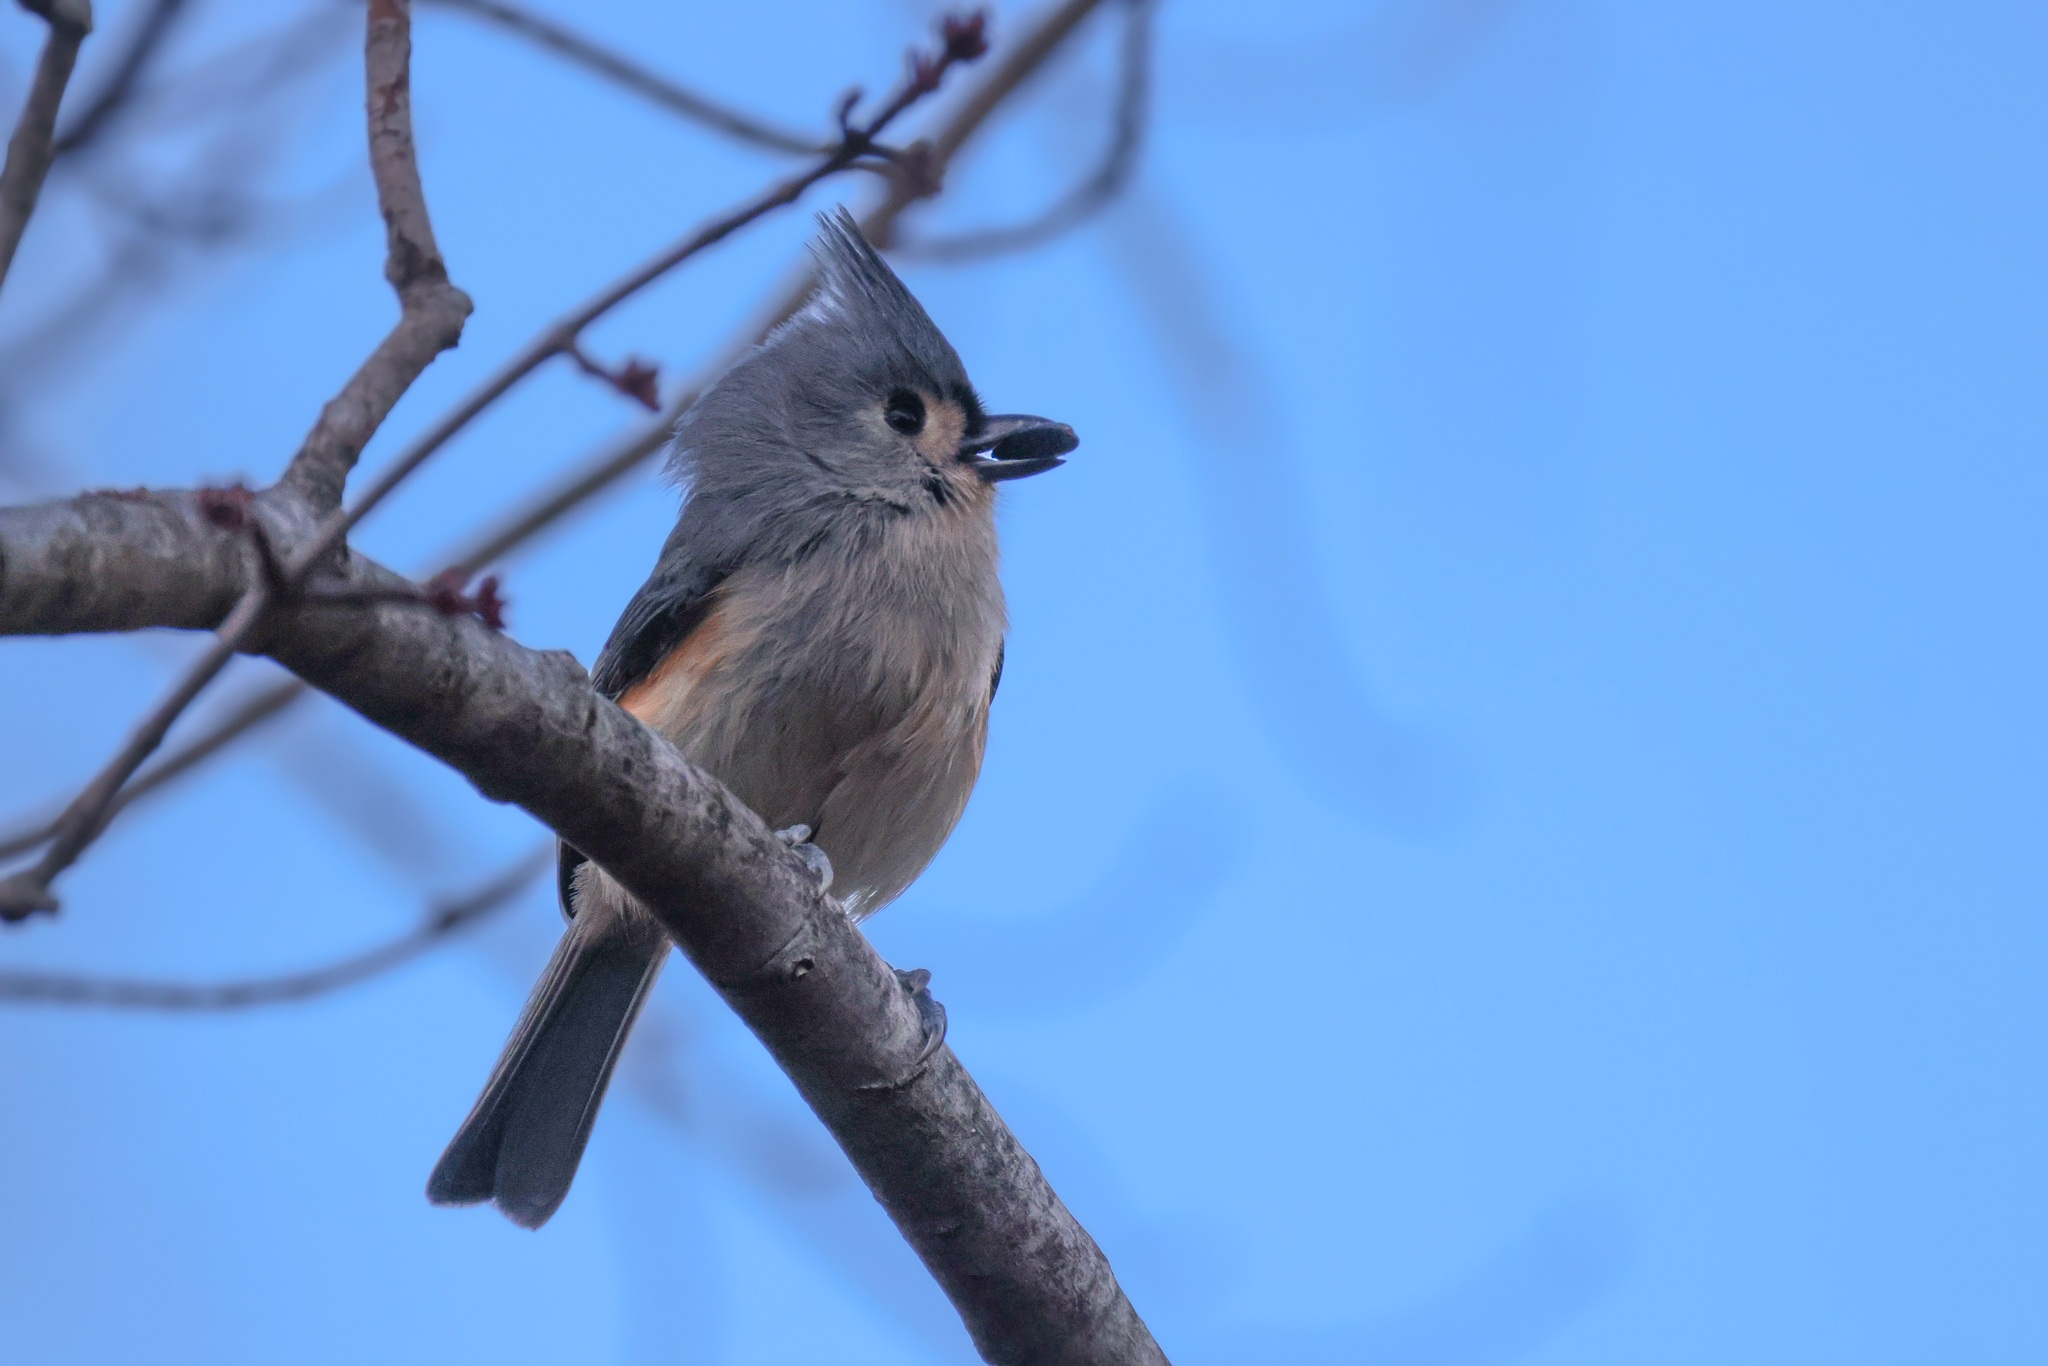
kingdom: Animalia
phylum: Chordata
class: Aves
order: Passeriformes
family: Paridae
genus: Baeolophus
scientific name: Baeolophus bicolor
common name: Tufted titmouse
